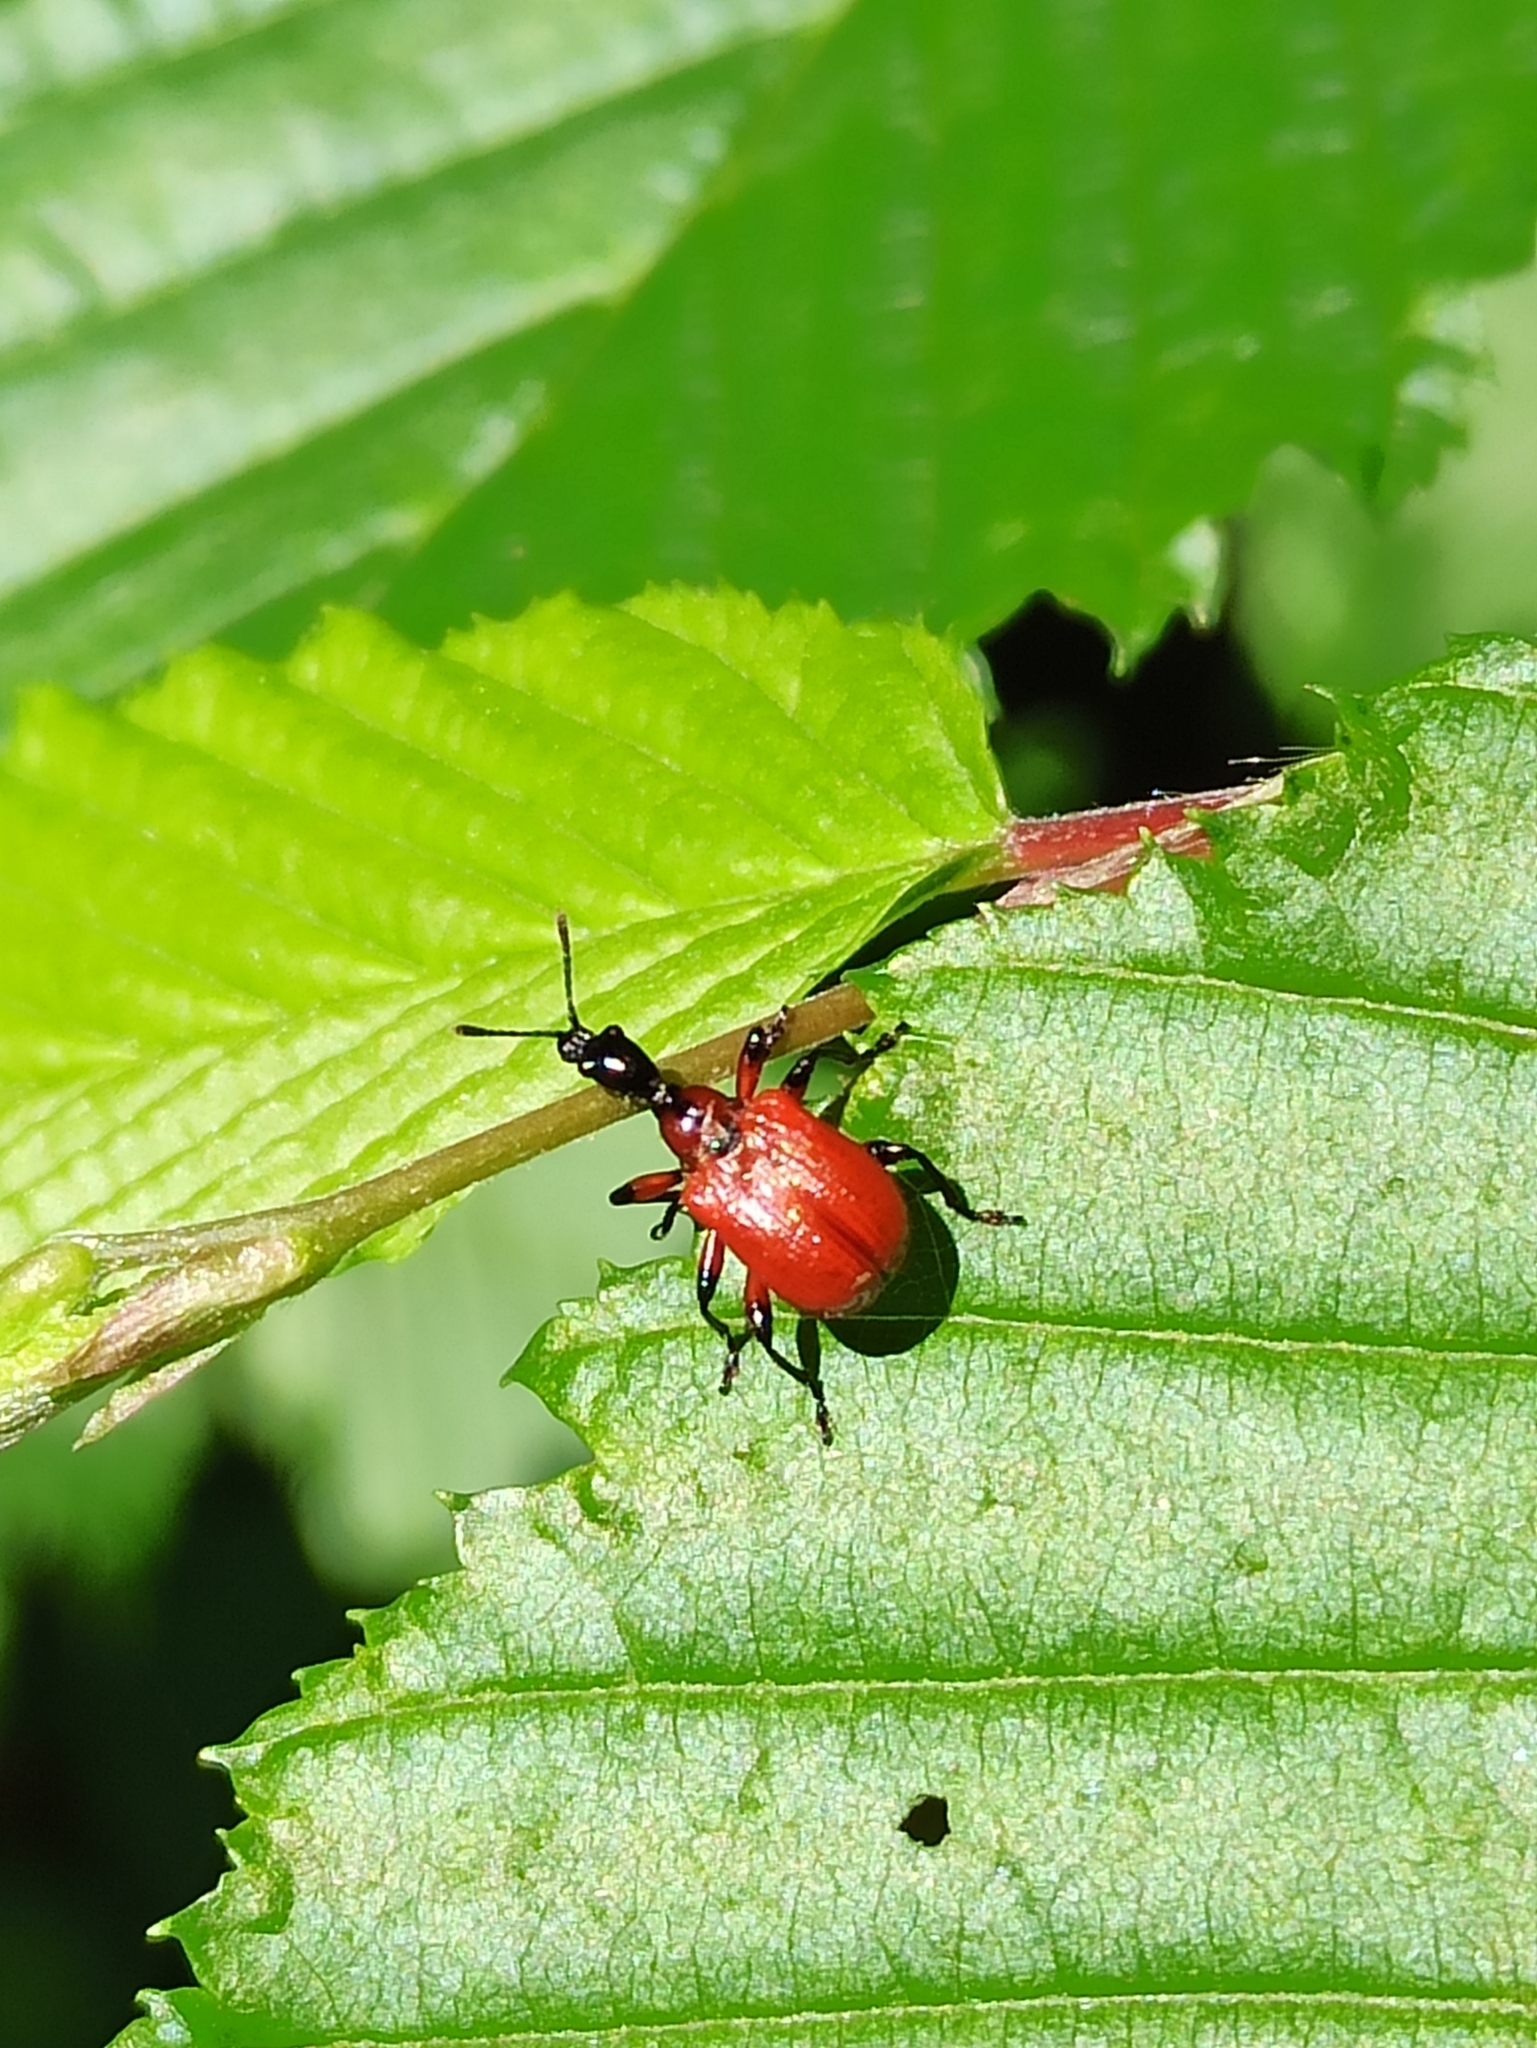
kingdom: Animalia
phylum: Arthropoda
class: Insecta
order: Coleoptera
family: Attelabidae
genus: Apoderus
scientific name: Apoderus coryli
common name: Hazel leaf roller
